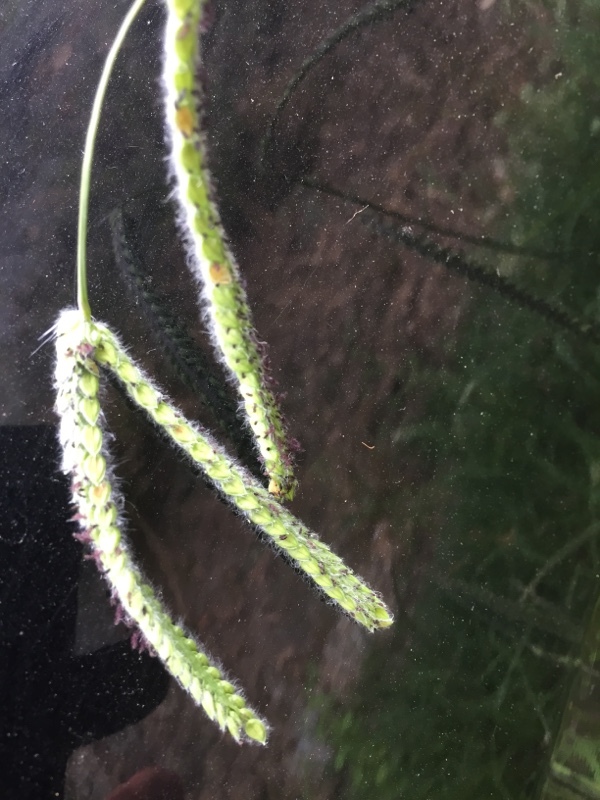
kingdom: Plantae
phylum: Tracheophyta
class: Liliopsida
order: Poales
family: Poaceae
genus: Paspalum
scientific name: Paspalum dilatatum
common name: Dallisgrass
